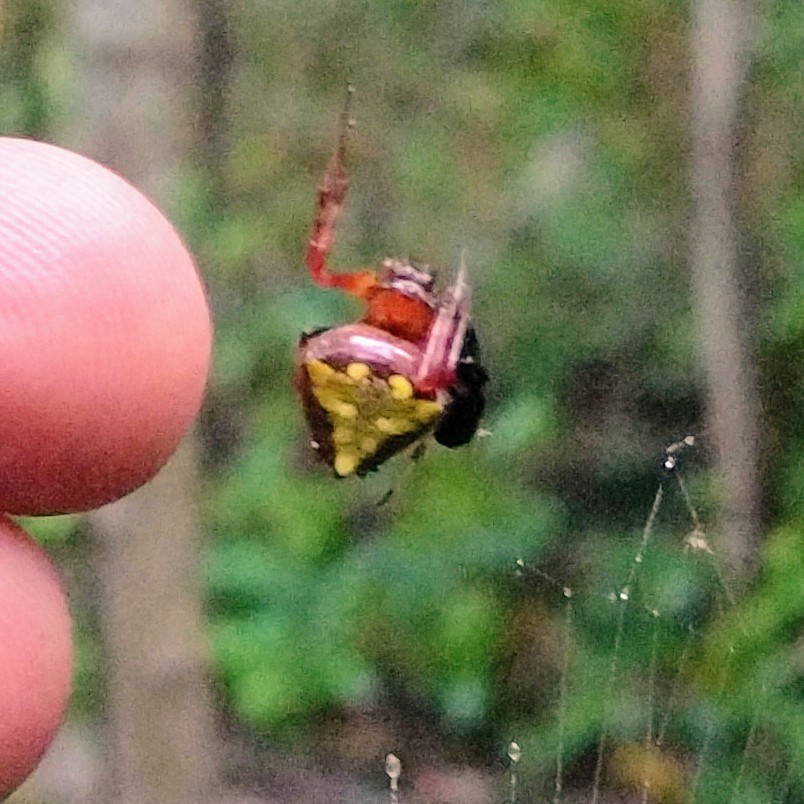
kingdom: Animalia
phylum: Arthropoda
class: Arachnida
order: Araneae
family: Araneidae
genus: Verrucosa
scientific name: Verrucosa arenata
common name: Orb weavers
